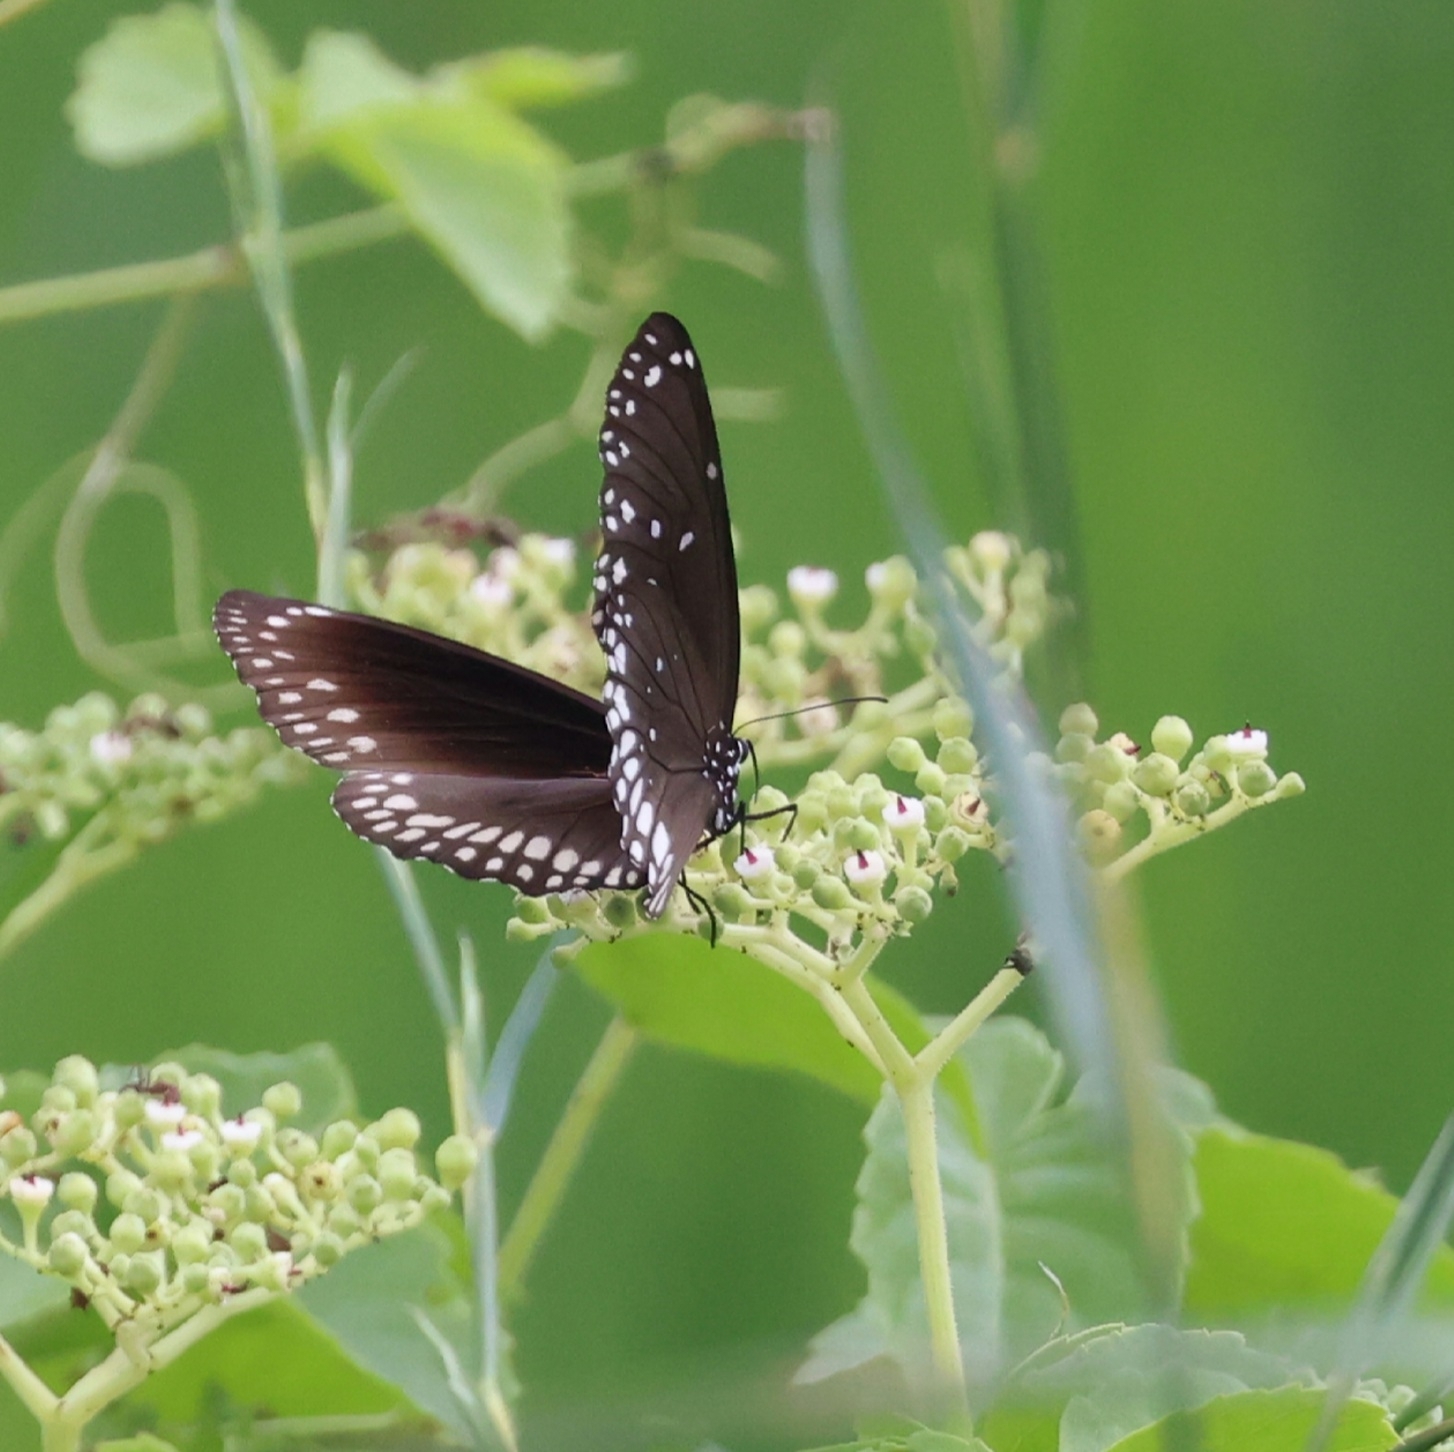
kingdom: Animalia
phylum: Arthropoda
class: Insecta
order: Lepidoptera
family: Nymphalidae
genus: Euploea
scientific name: Euploea core
